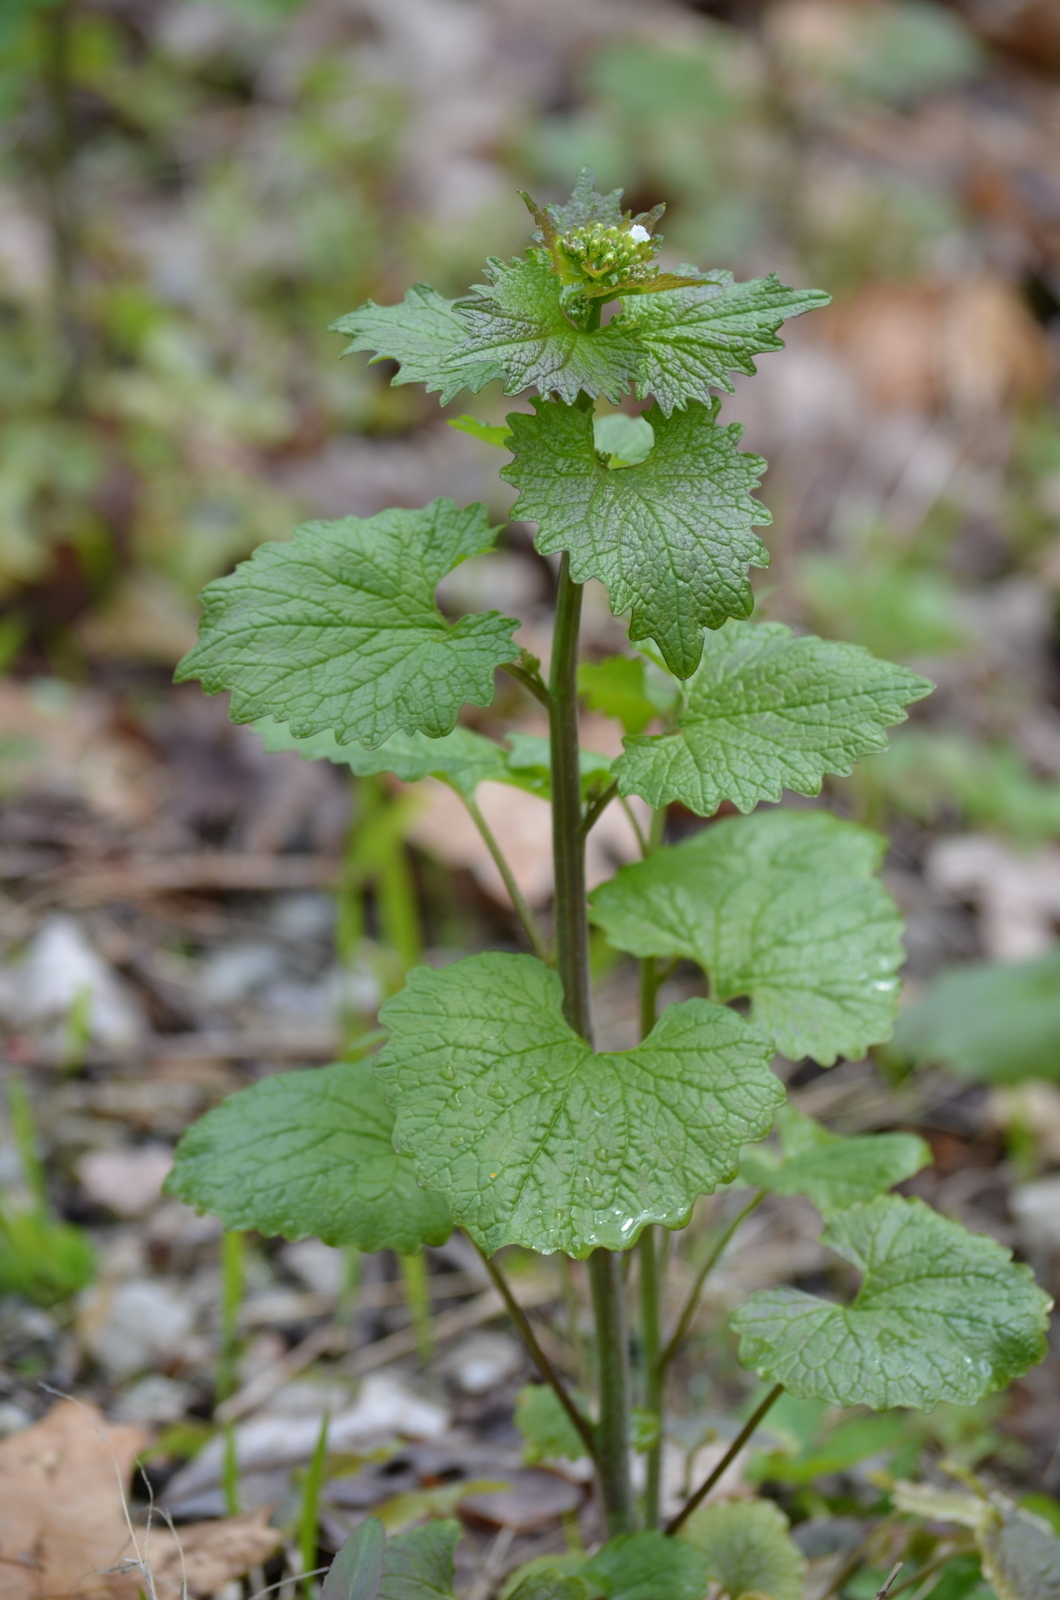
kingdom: Plantae
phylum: Tracheophyta
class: Magnoliopsida
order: Brassicales
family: Brassicaceae
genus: Alliaria
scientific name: Alliaria petiolata
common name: Garlic mustard
